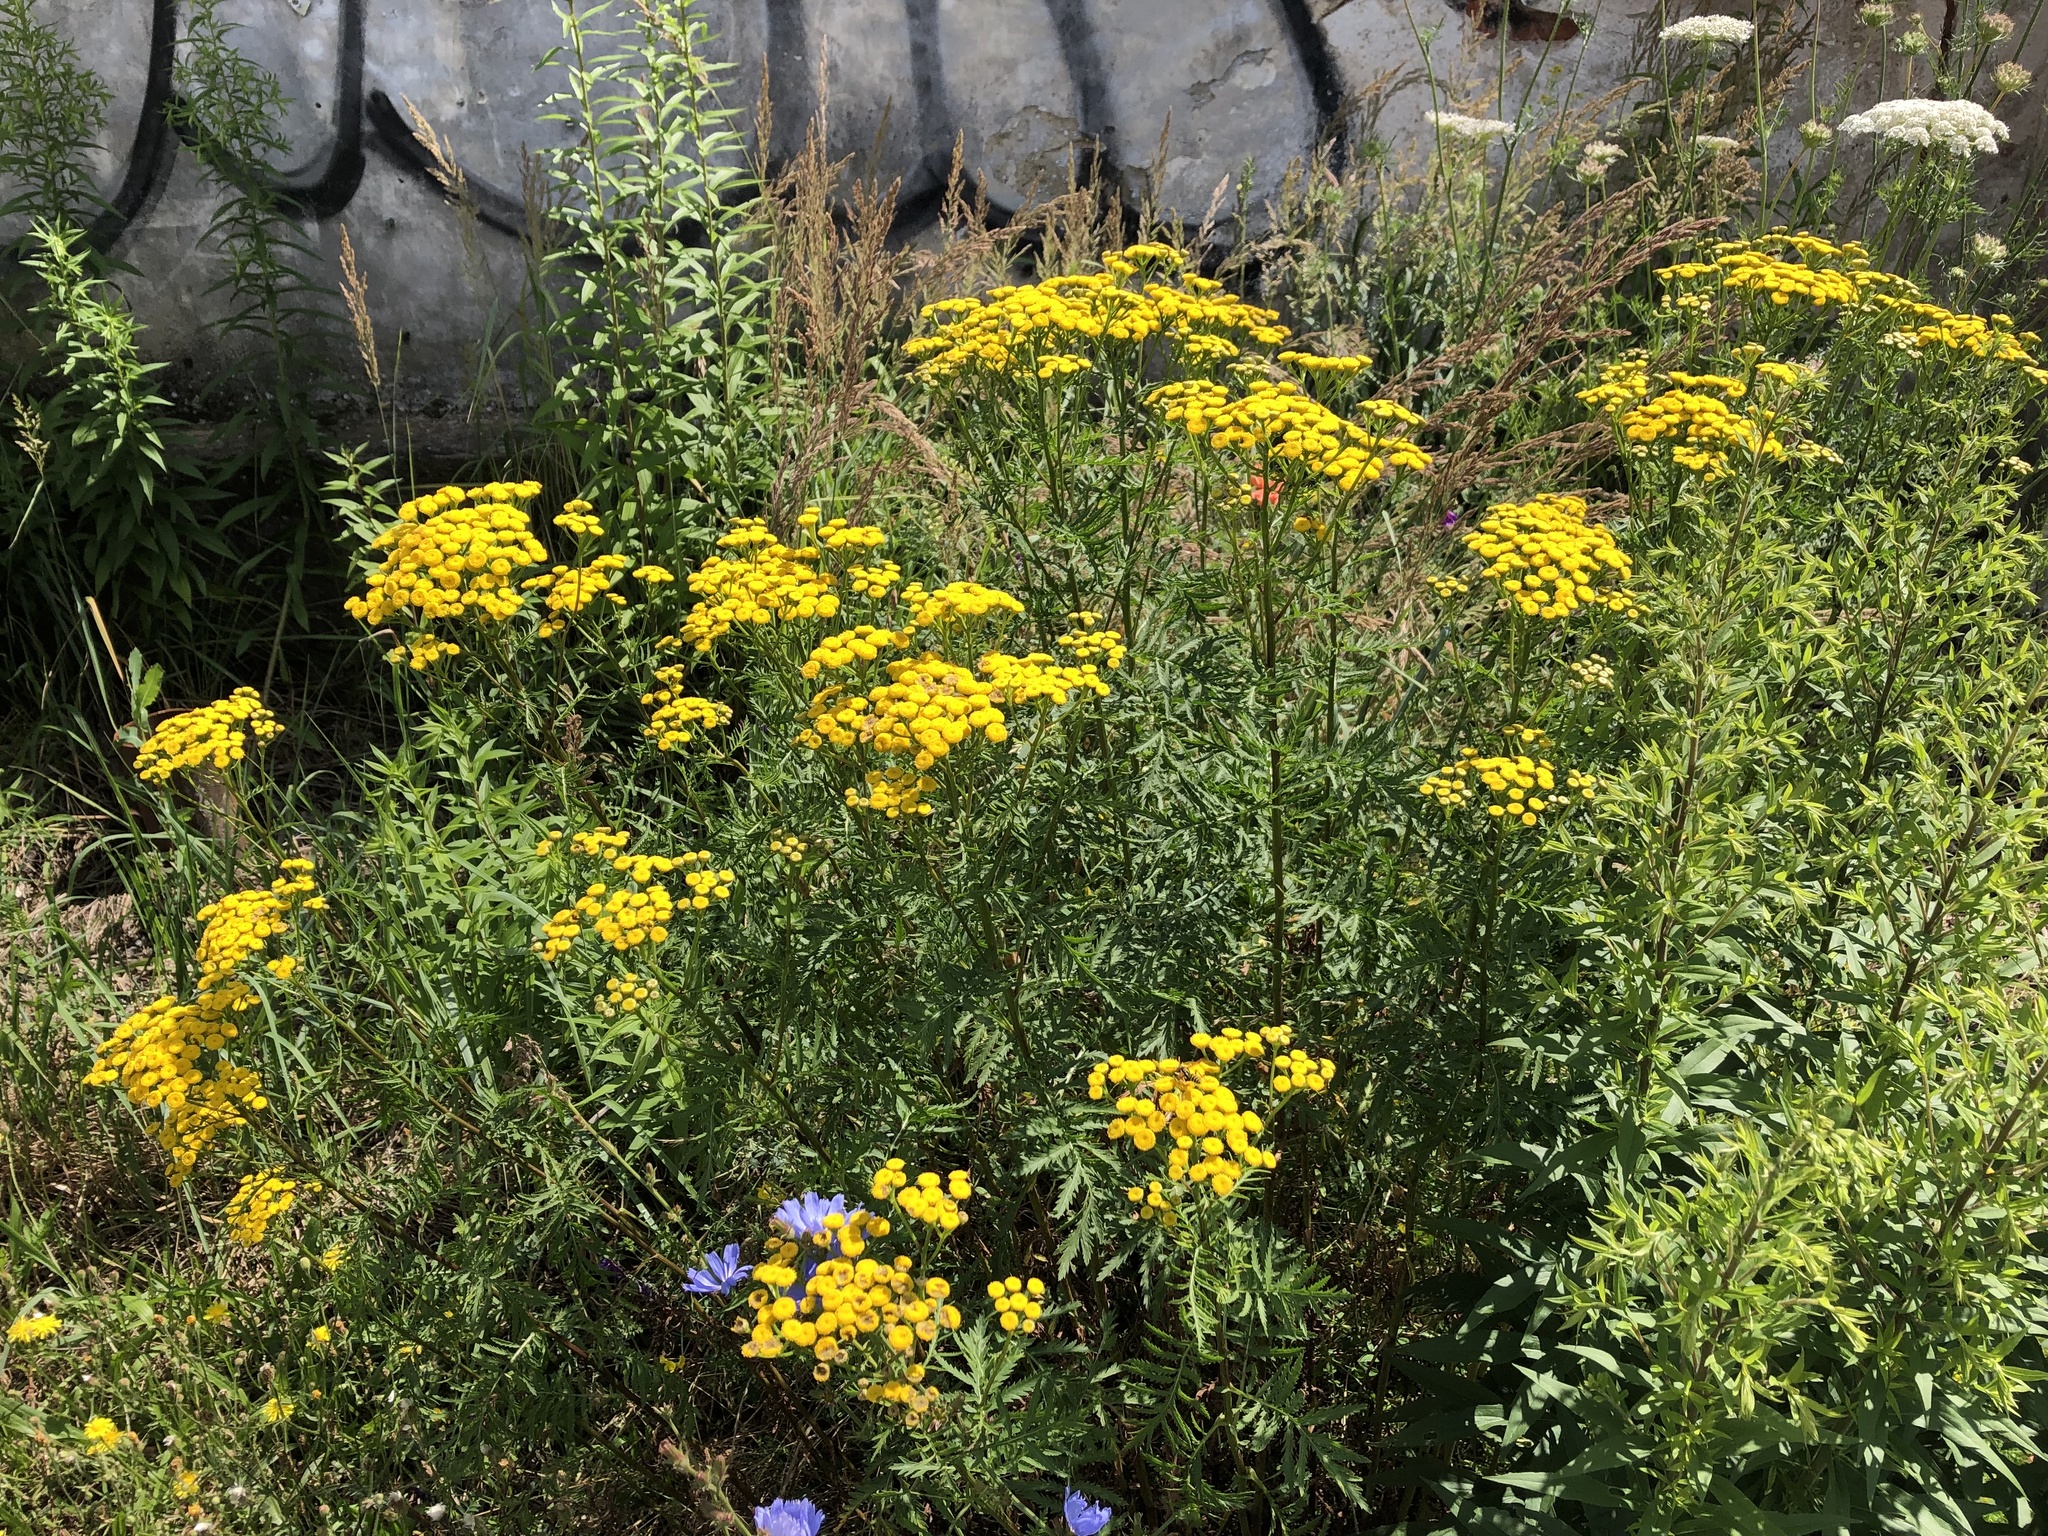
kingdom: Plantae
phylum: Tracheophyta
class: Magnoliopsida
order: Asterales
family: Asteraceae
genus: Tanacetum
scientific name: Tanacetum vulgare
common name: Common tansy
